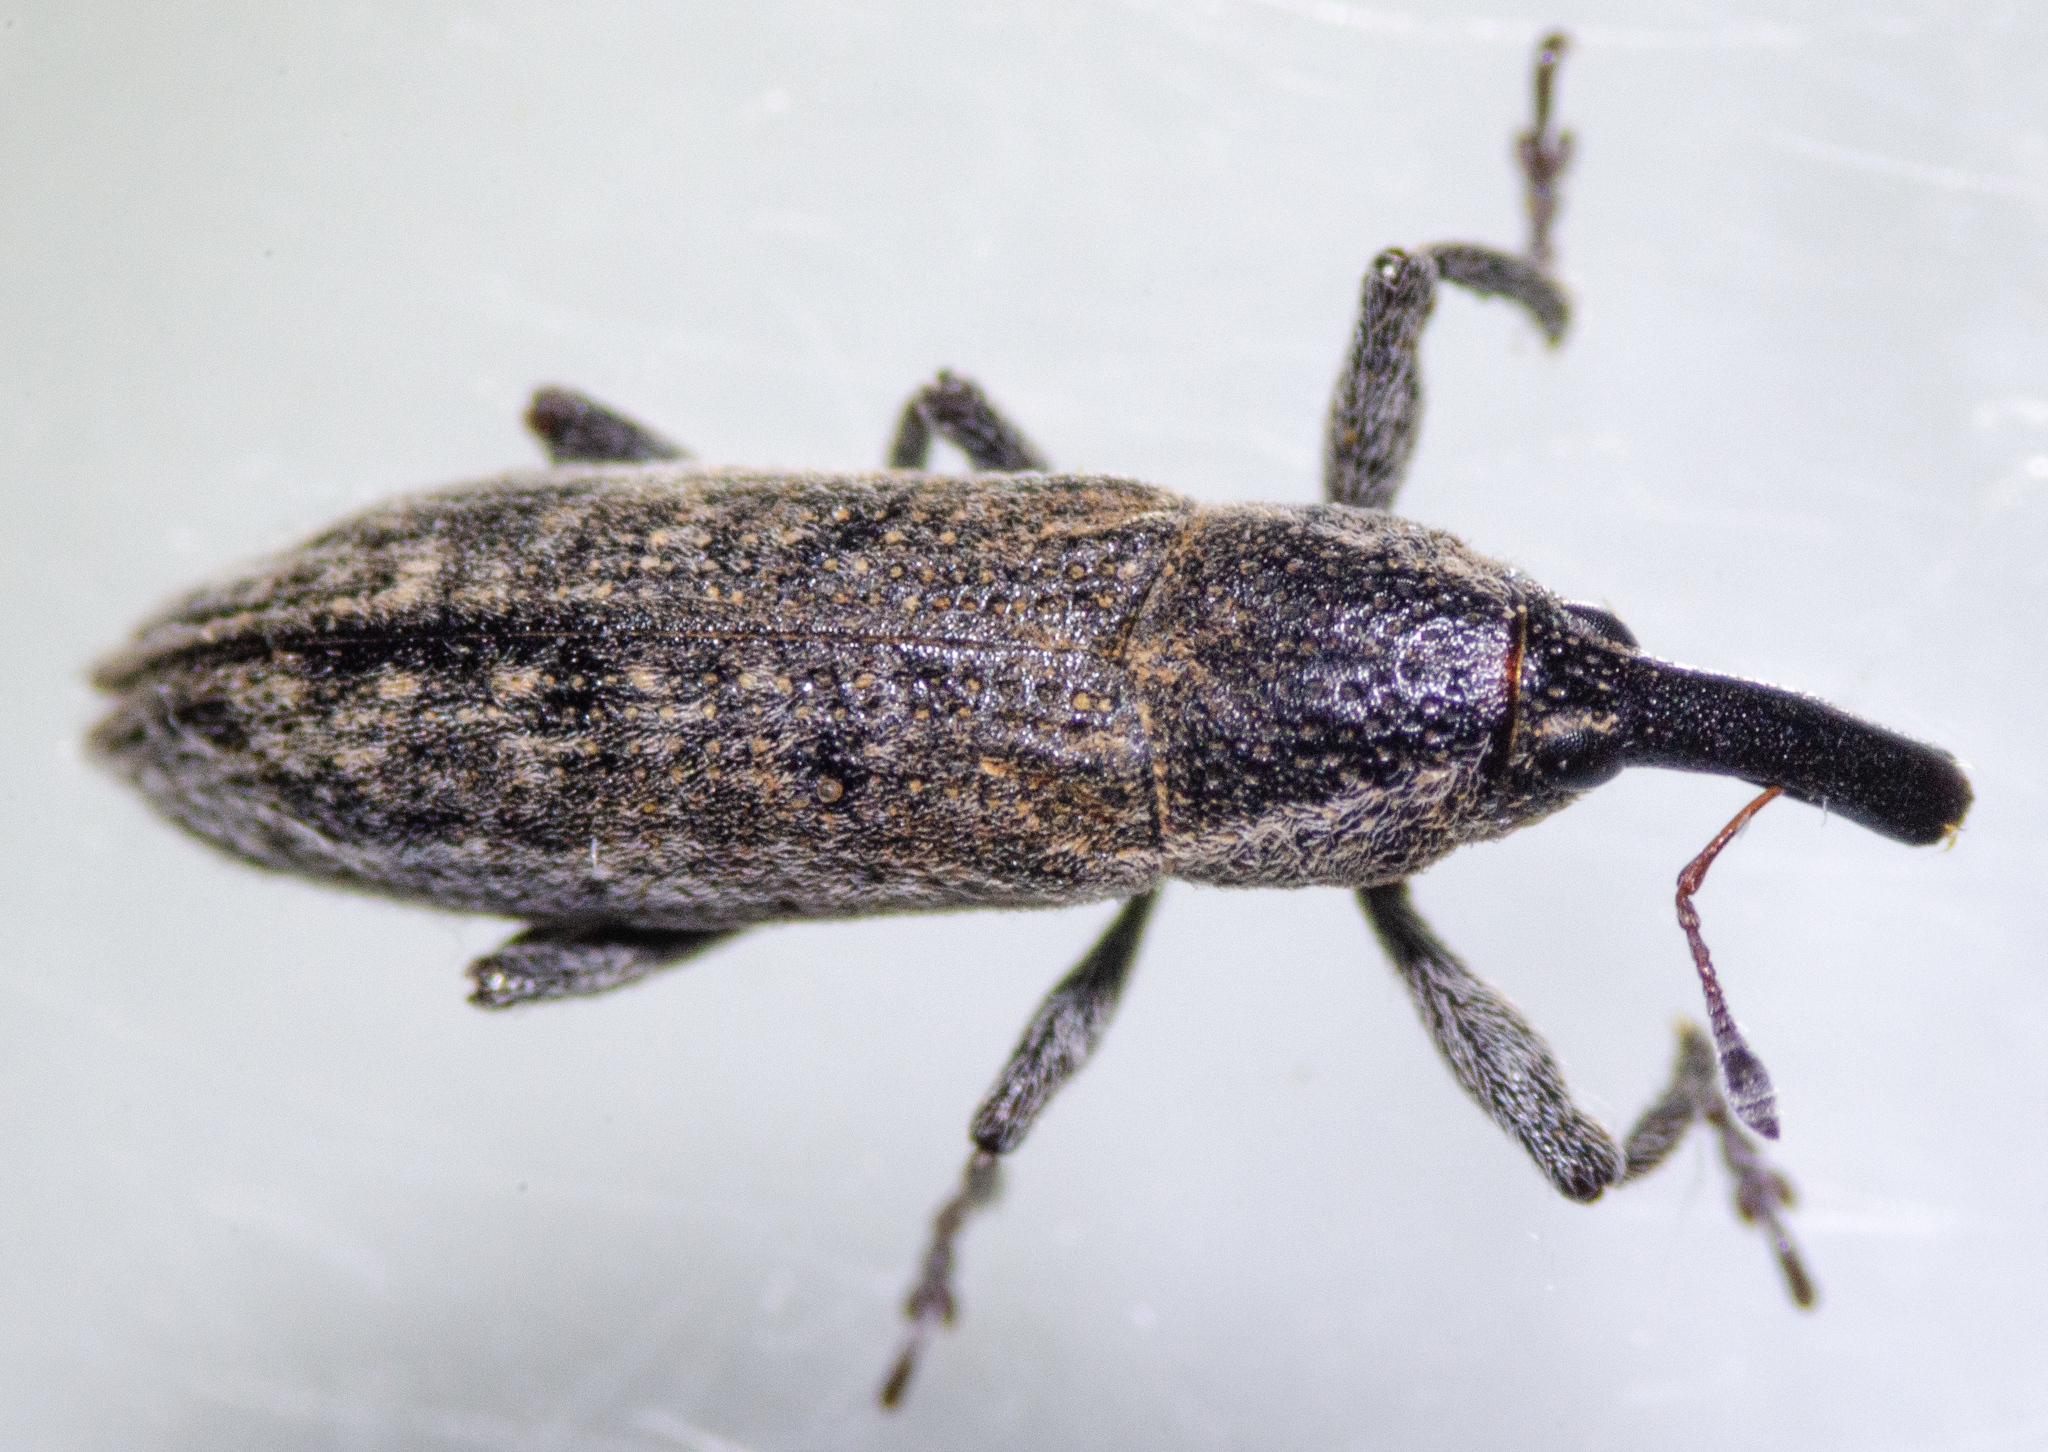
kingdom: Animalia
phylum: Arthropoda
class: Insecta
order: Coleoptera
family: Curculionidae
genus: Lixus
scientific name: Lixus perforatus
